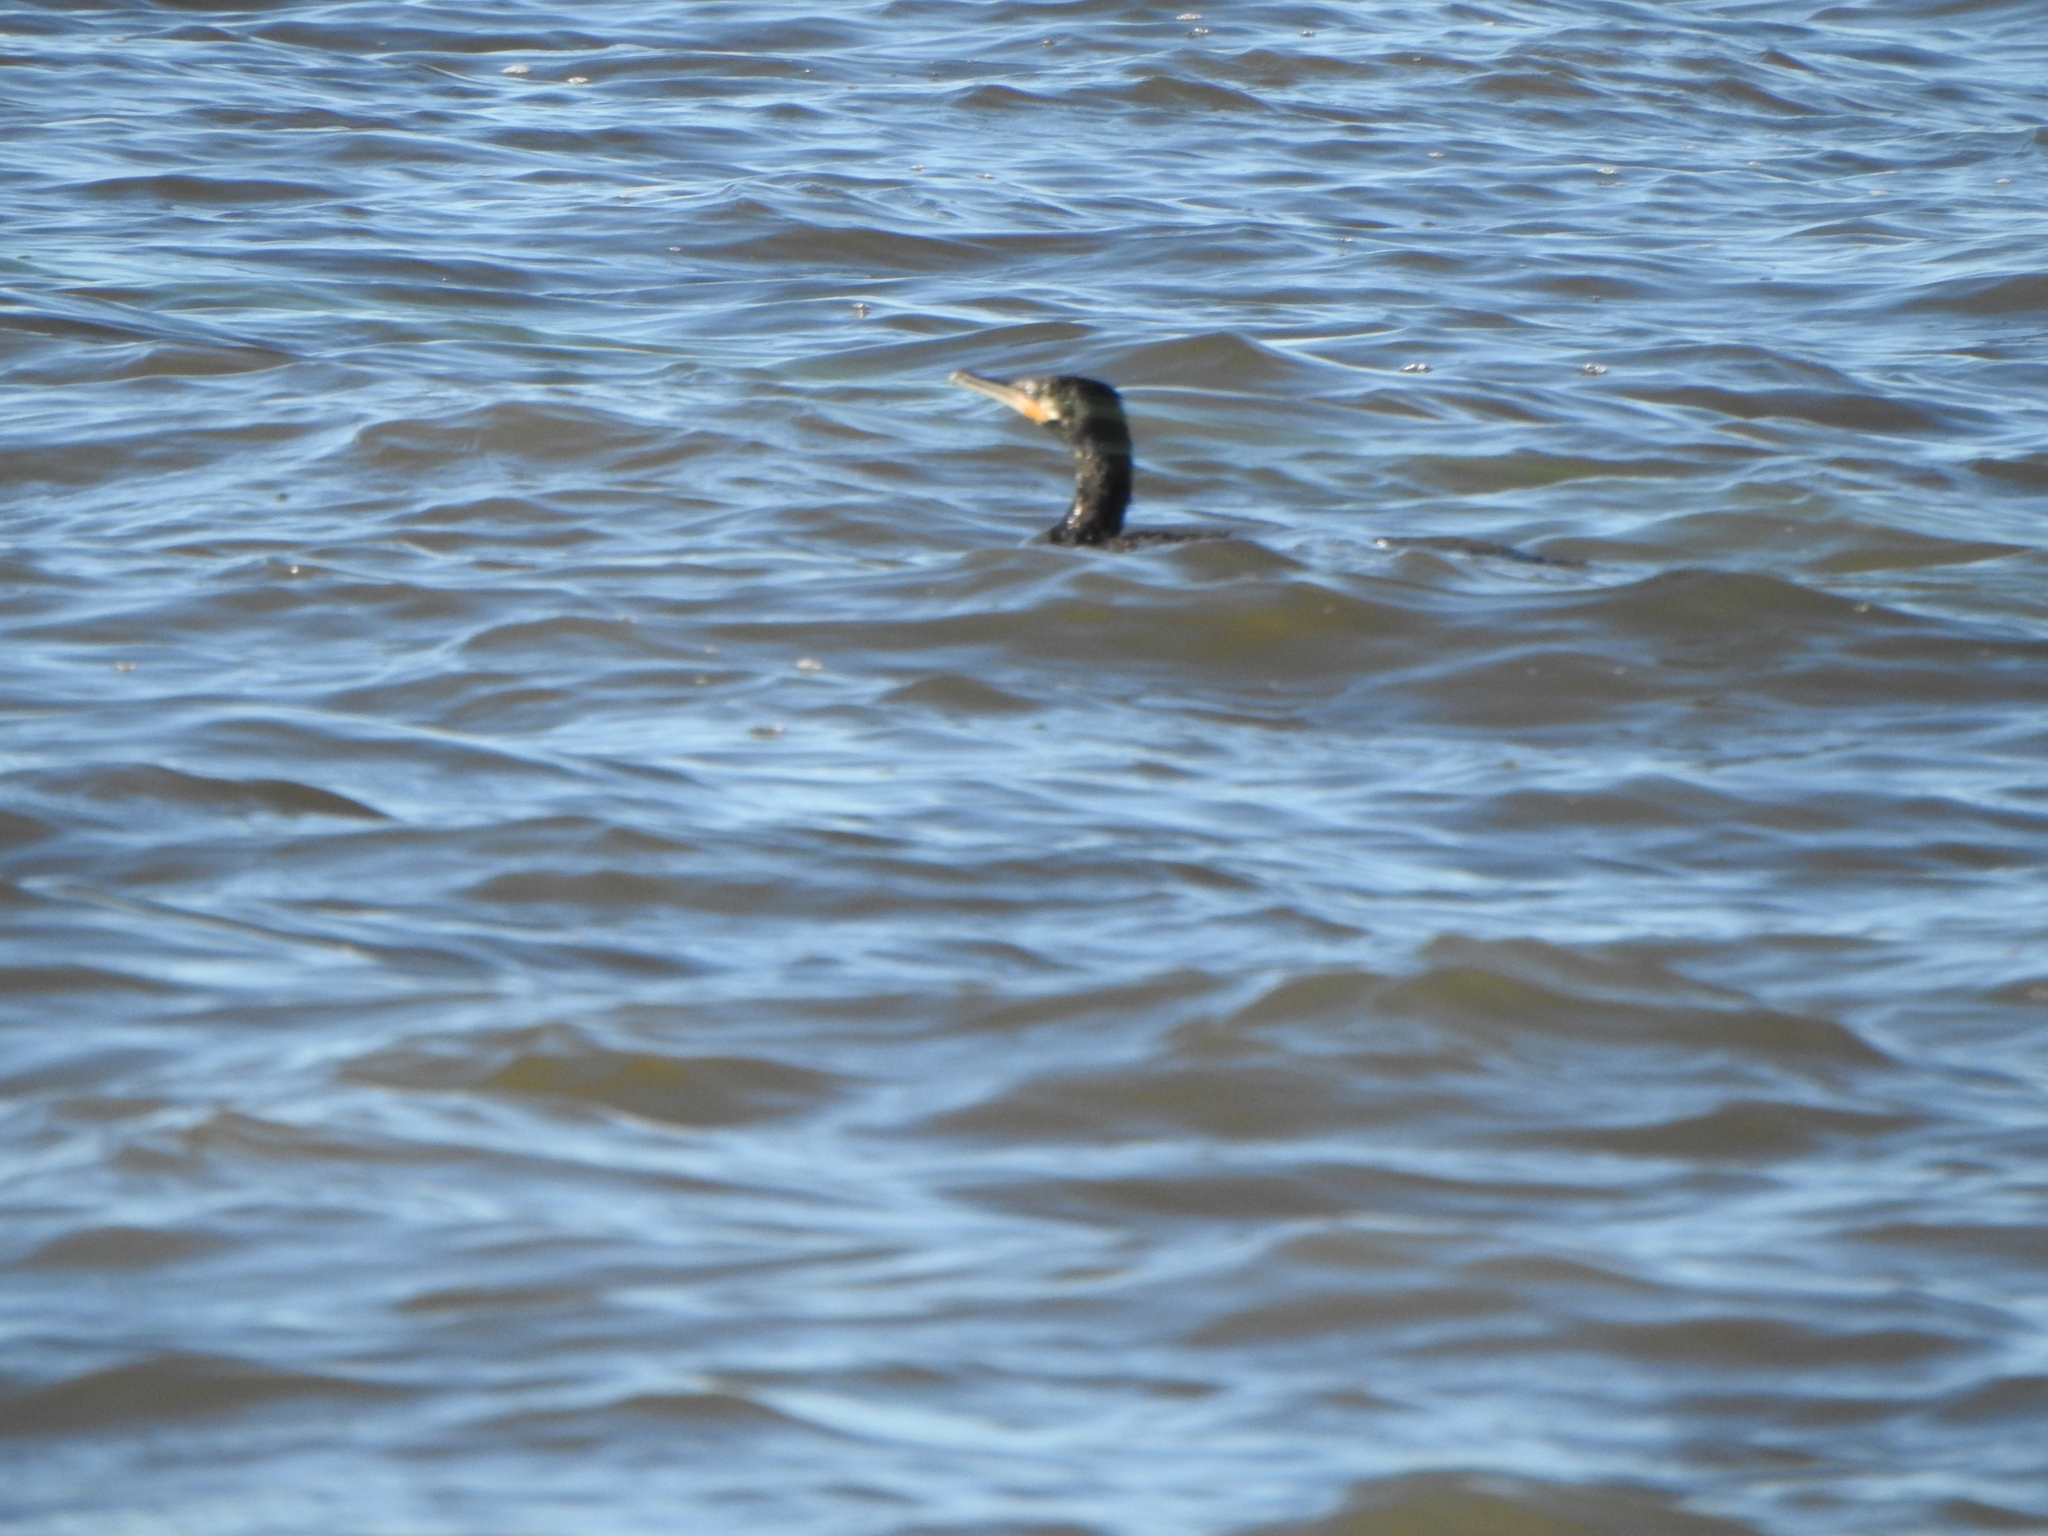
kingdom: Animalia
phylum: Chordata
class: Aves
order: Suliformes
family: Phalacrocoracidae
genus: Phalacrocorax
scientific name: Phalacrocorax brasilianus
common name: Neotropic cormorant
